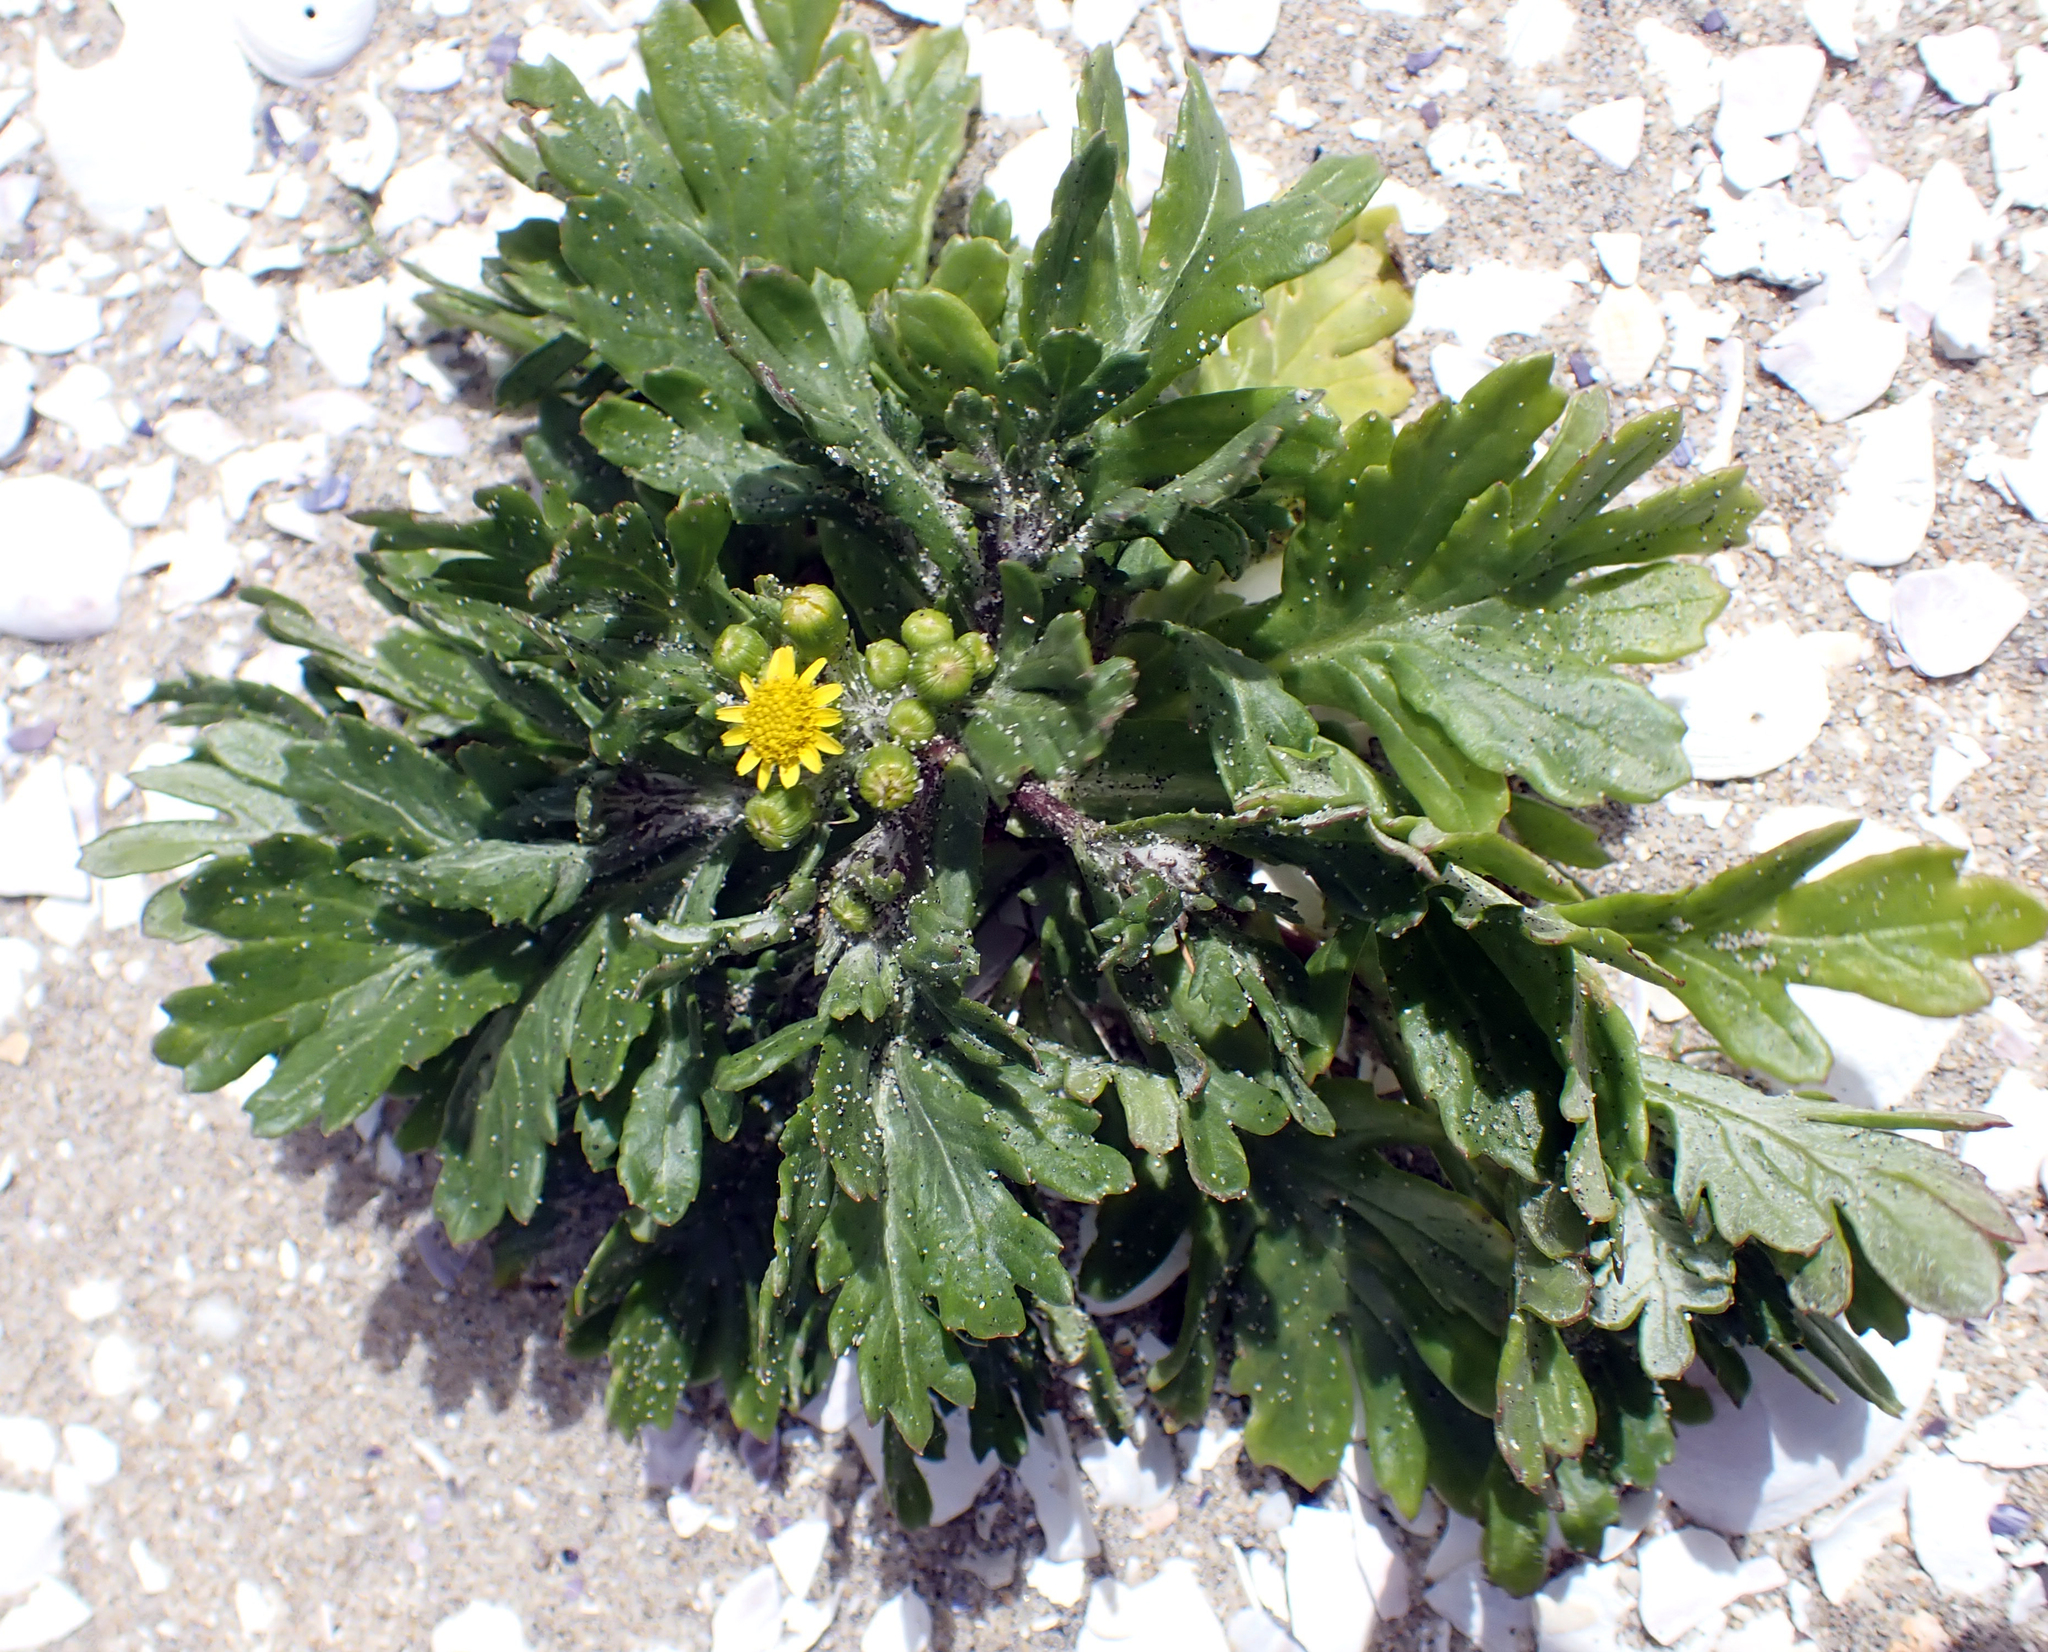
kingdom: Plantae
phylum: Tracheophyta
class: Magnoliopsida
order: Asterales
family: Asteraceae
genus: Senecio
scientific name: Senecio radiolatus
